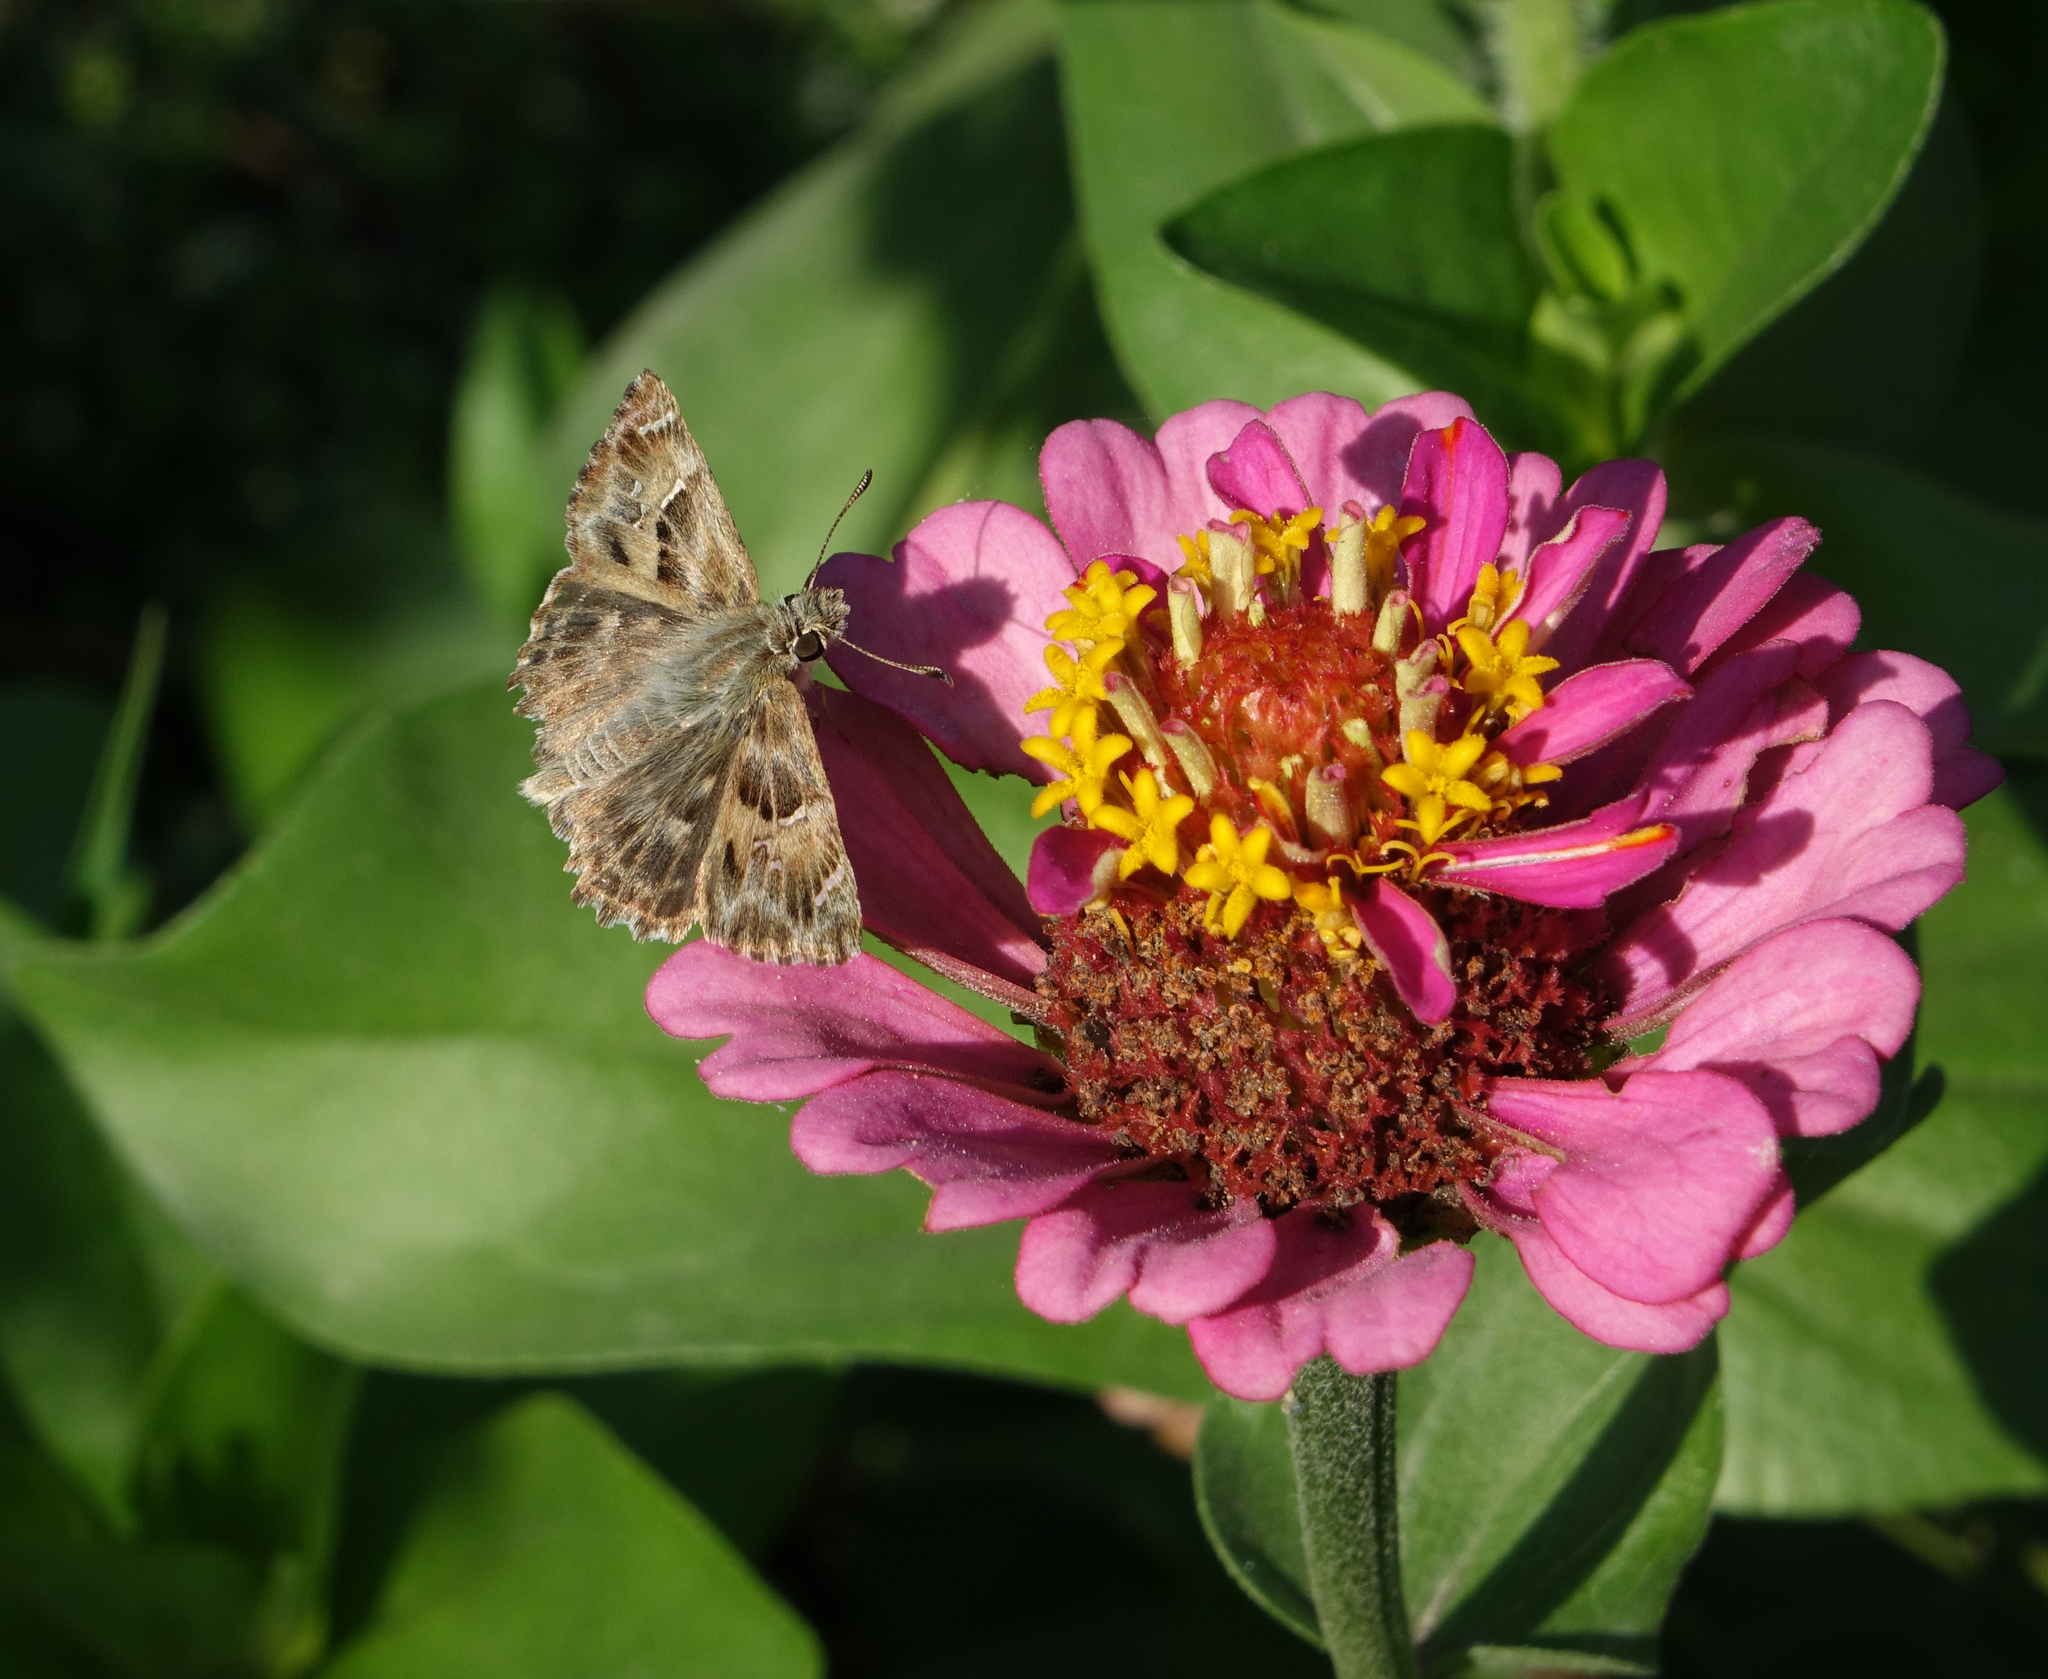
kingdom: Animalia
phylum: Arthropoda
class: Insecta
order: Lepidoptera
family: Hesperiidae
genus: Carcharodus
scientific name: Carcharodus alceae
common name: Mallow skipper
